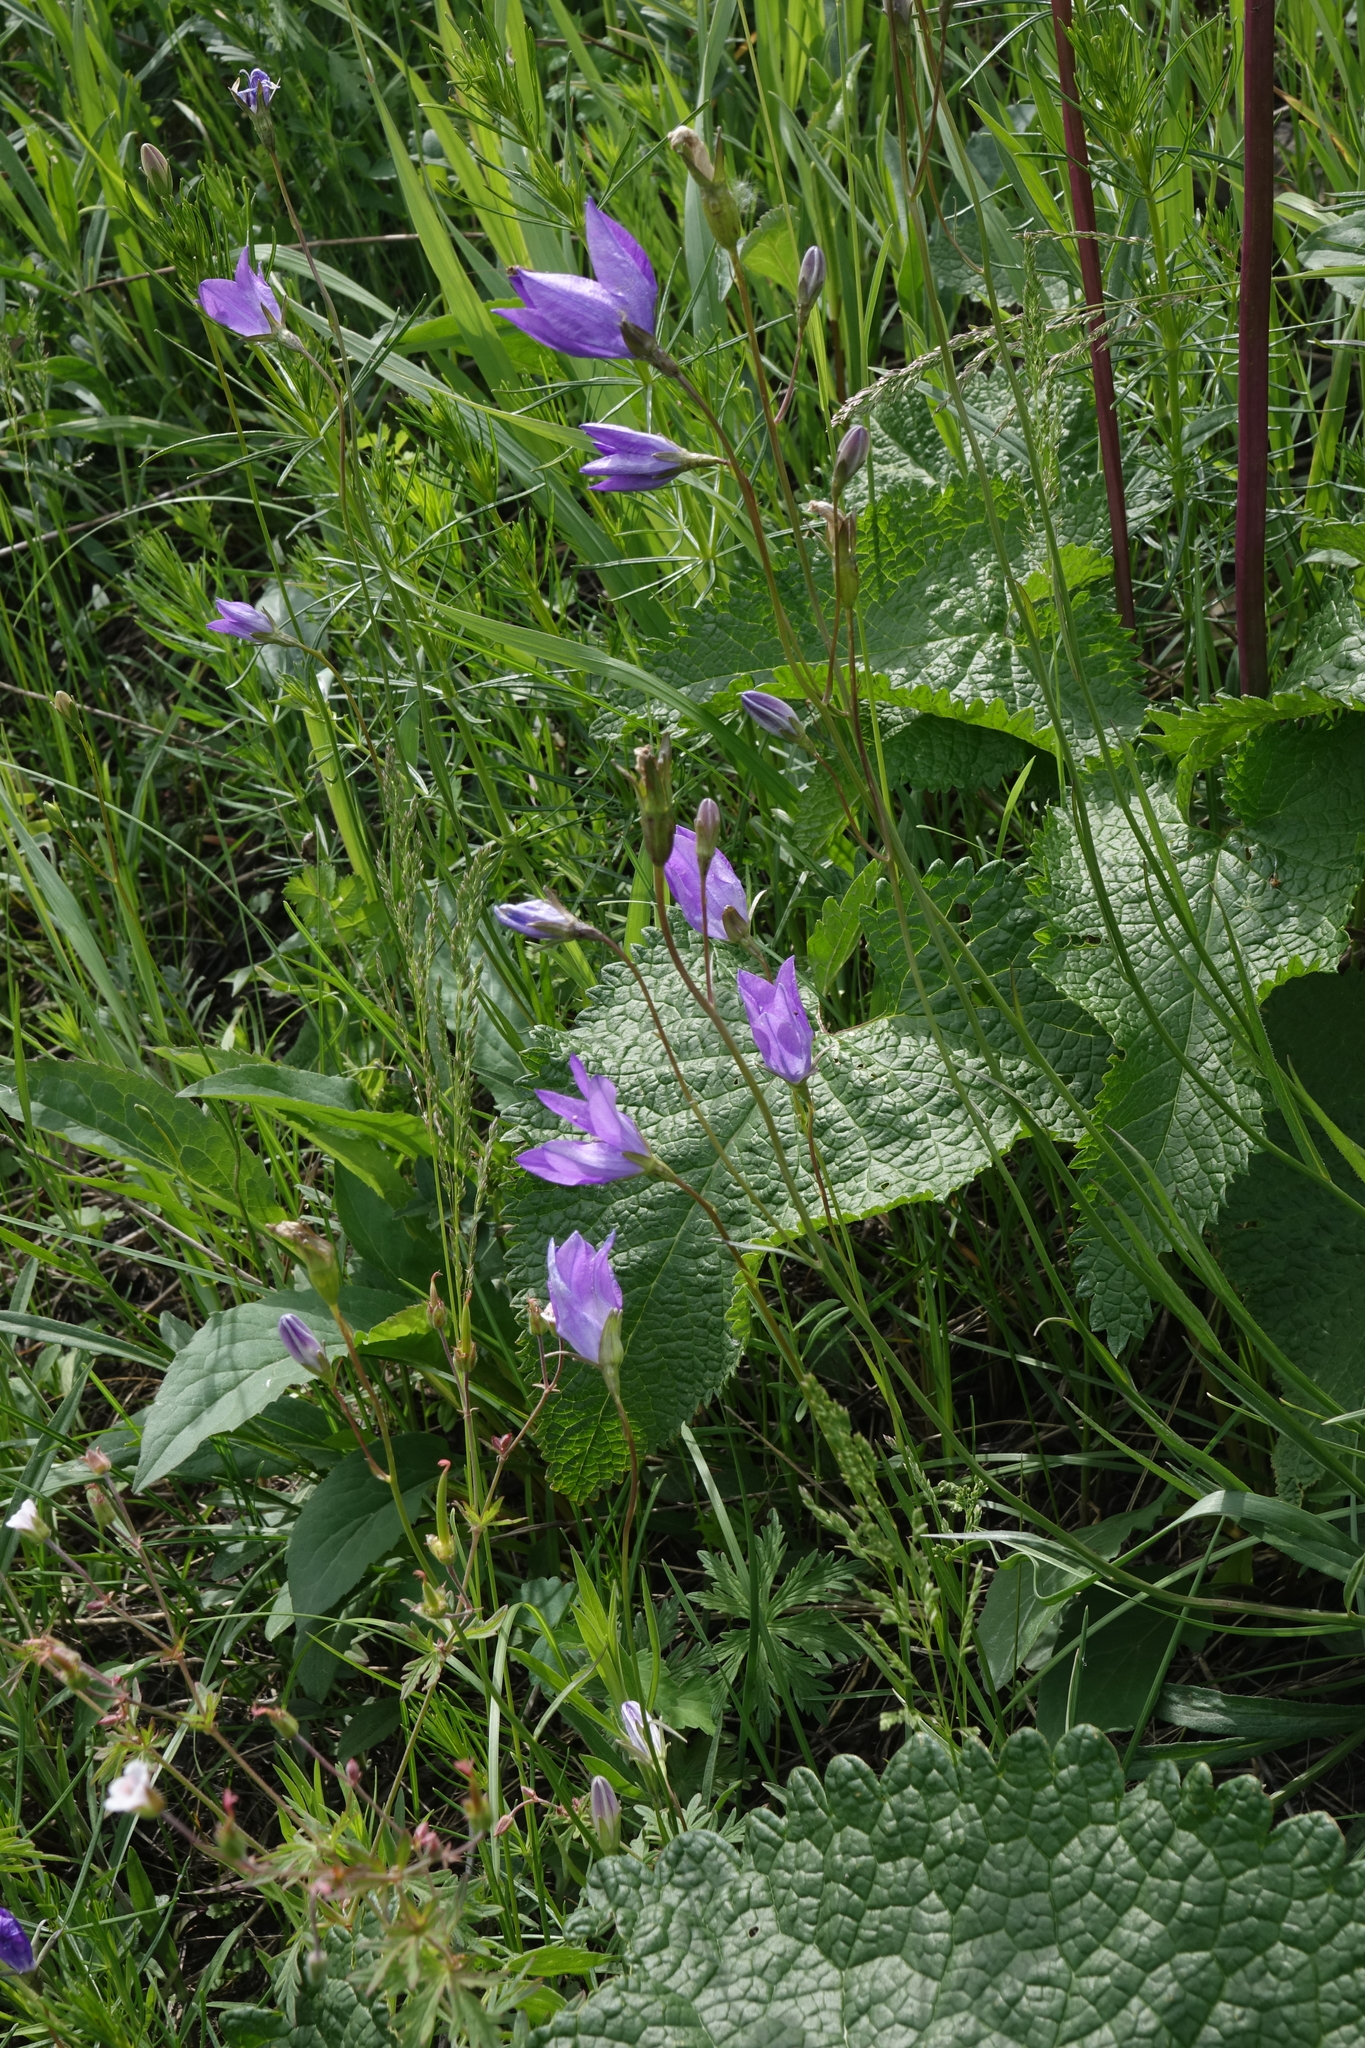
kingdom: Plantae
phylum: Tracheophyta
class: Magnoliopsida
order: Asterales
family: Campanulaceae
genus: Campanula
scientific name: Campanula stevenii
